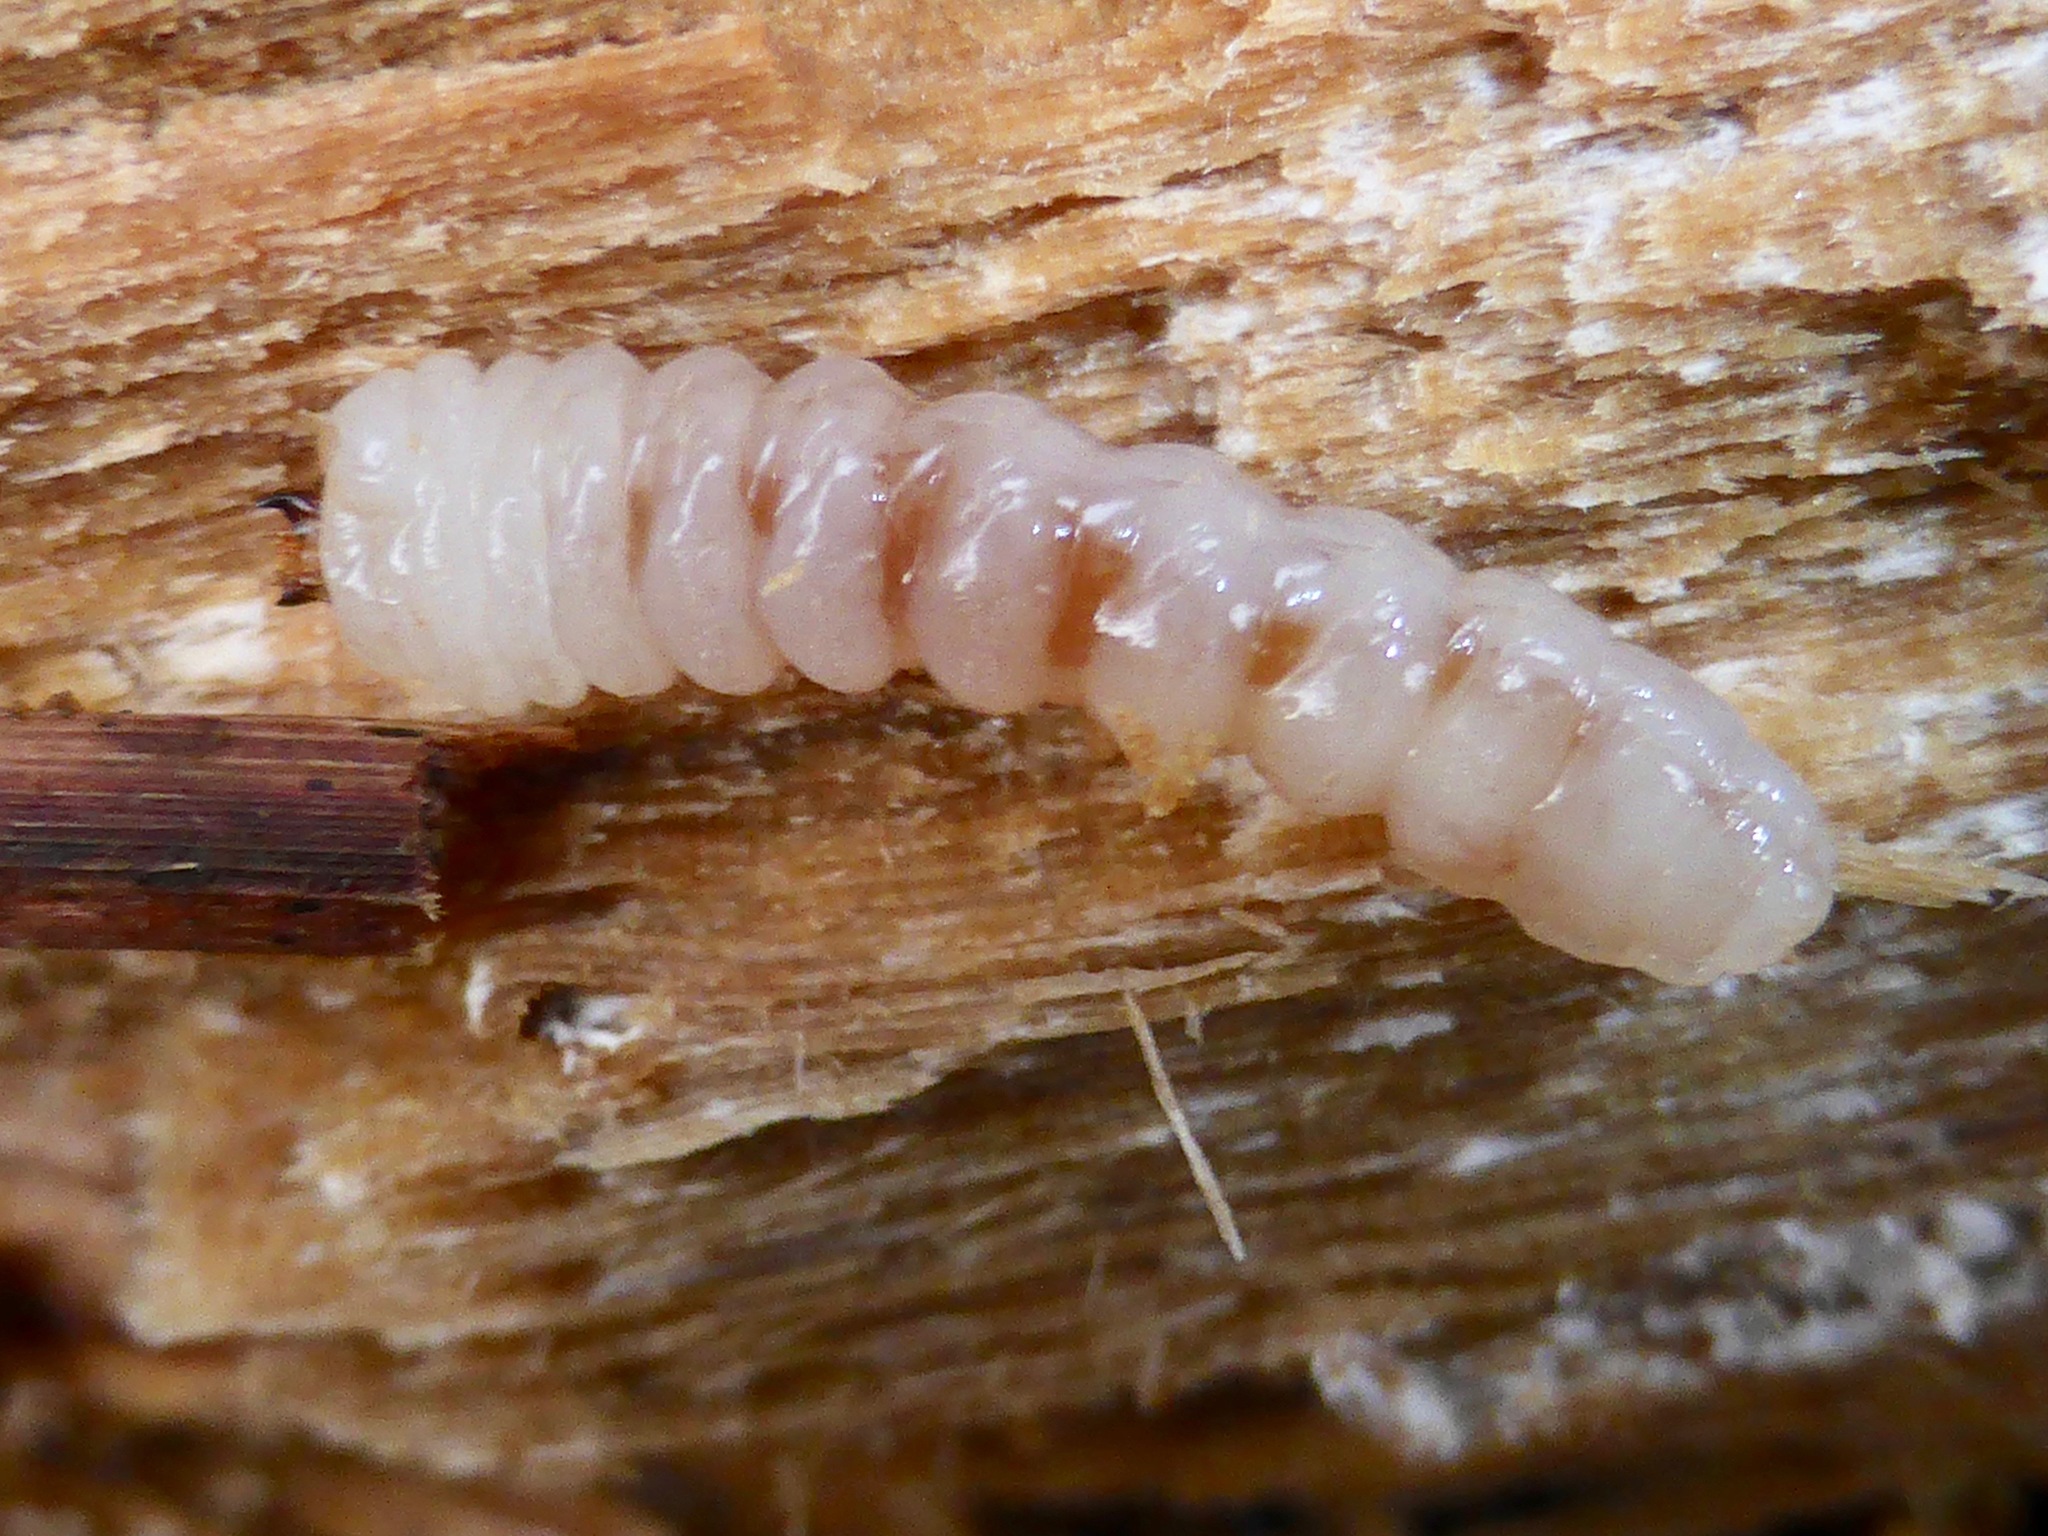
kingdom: Animalia
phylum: Arthropoda
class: Insecta
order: Coleoptera
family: Cerambycidae
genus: Prionoplus
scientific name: Prionoplus reticularis
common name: Huhu beetle
